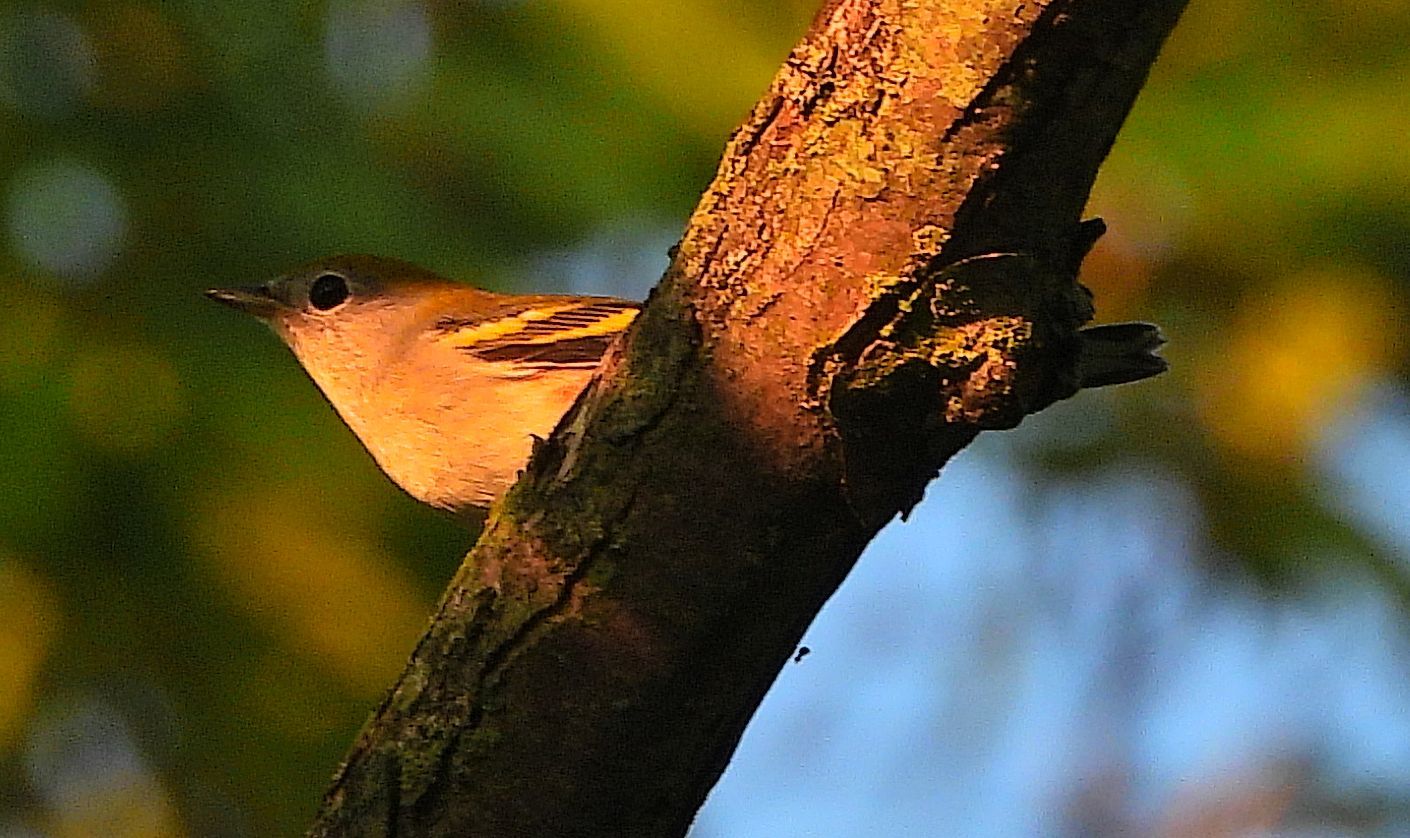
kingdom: Animalia
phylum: Chordata
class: Aves
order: Passeriformes
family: Parulidae
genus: Setophaga
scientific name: Setophaga pensylvanica
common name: Chestnut-sided warbler
